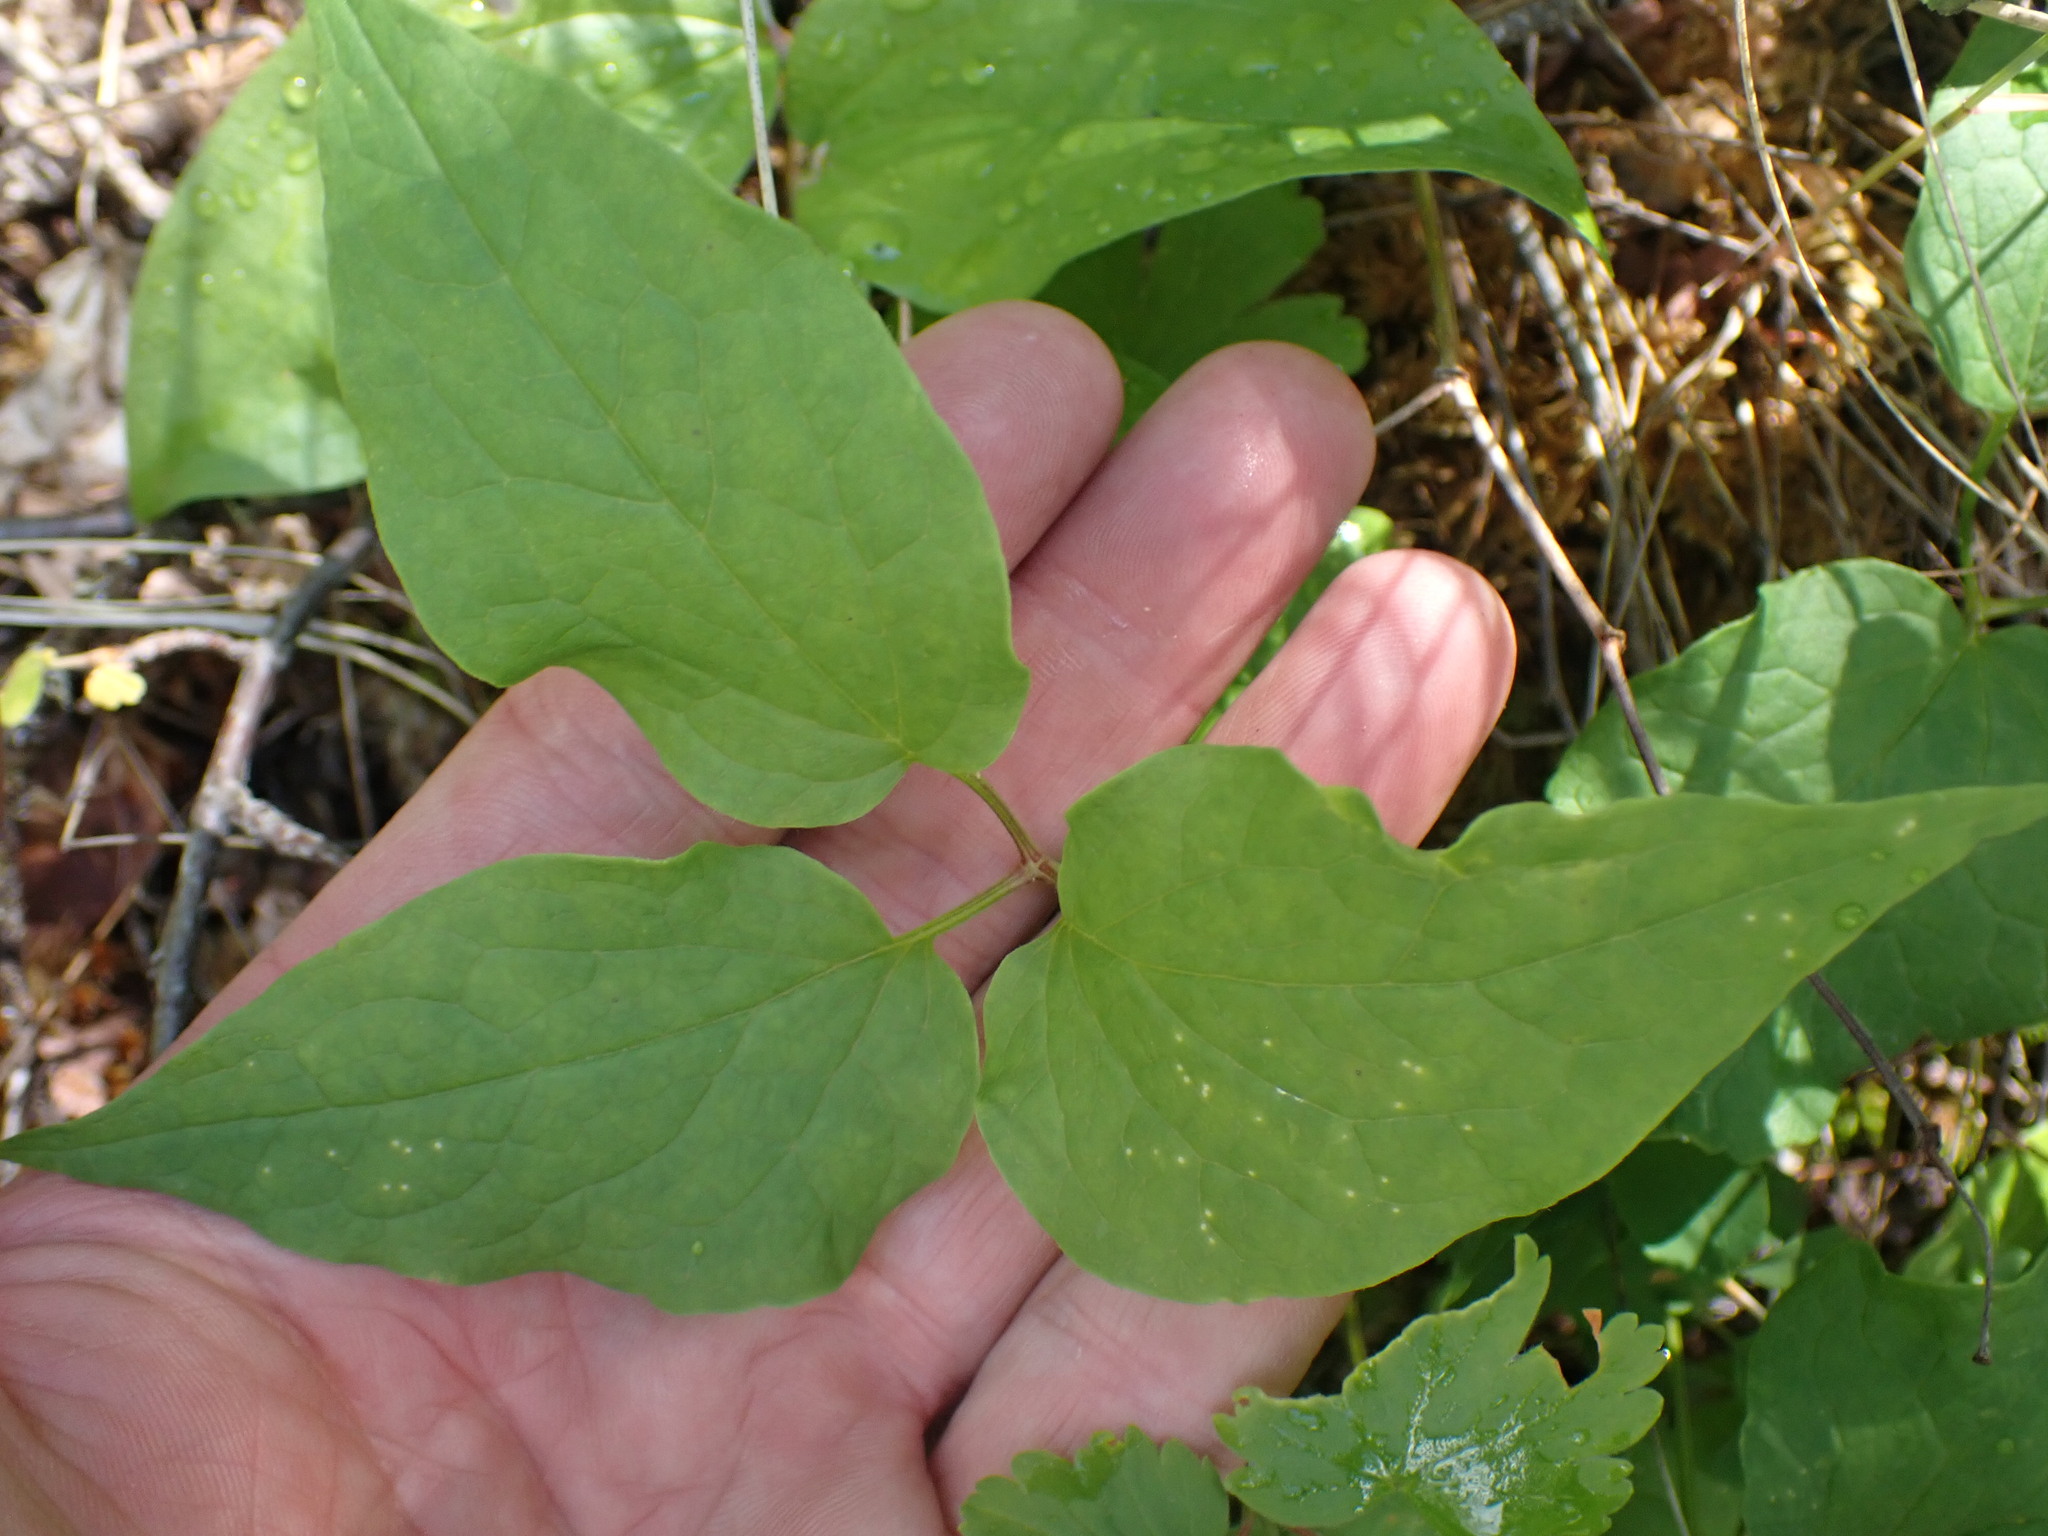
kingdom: Plantae
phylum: Tracheophyta
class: Magnoliopsida
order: Ranunculales
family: Ranunculaceae
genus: Clematis
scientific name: Clematis occidentalis
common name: Purple clematis
